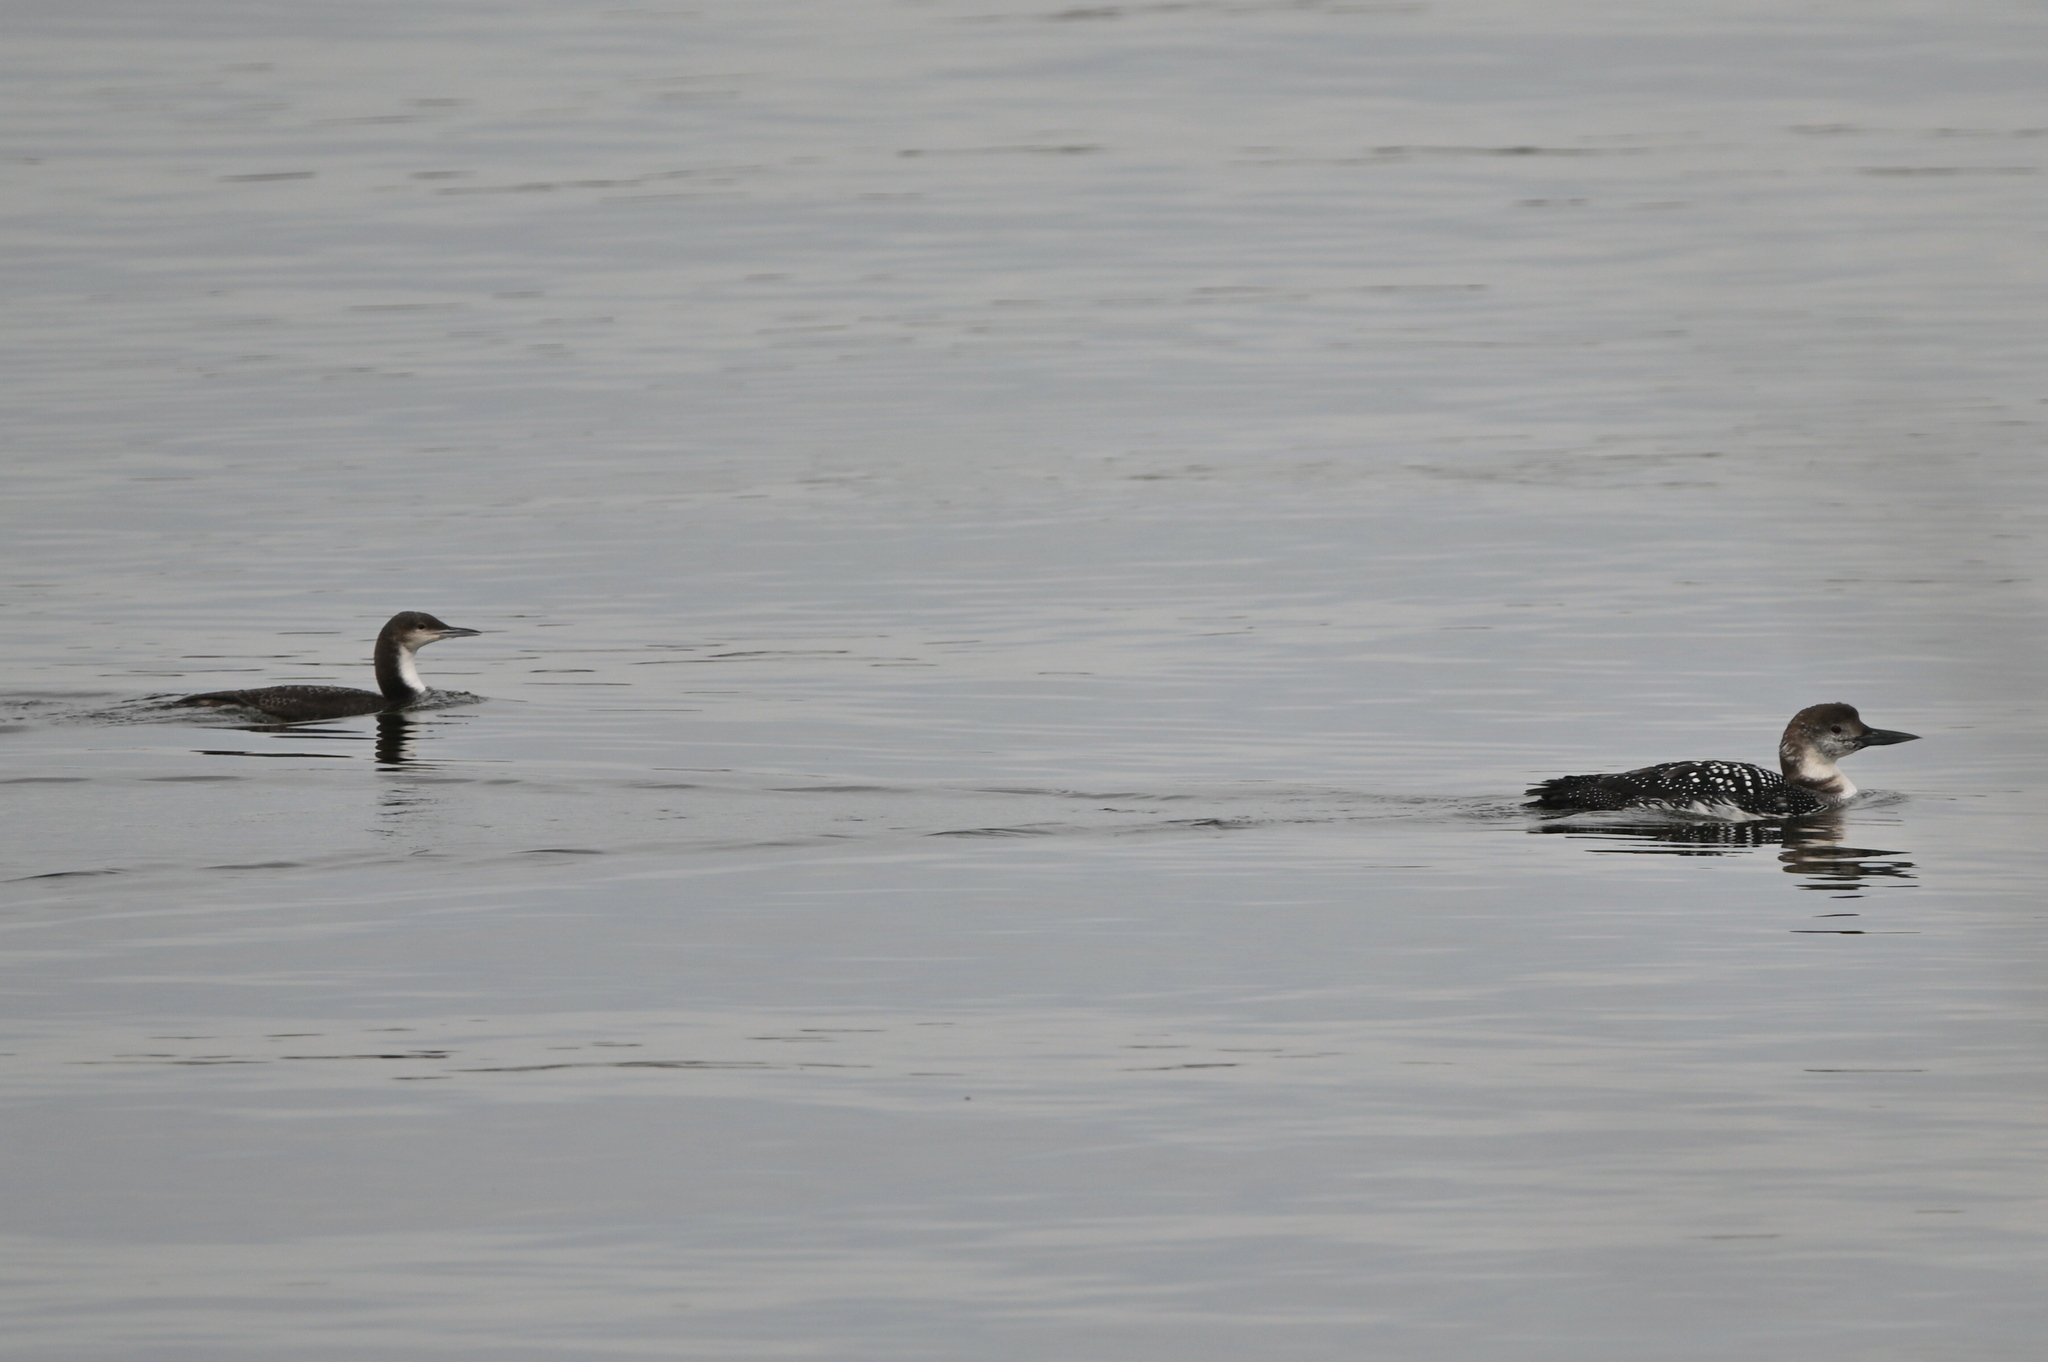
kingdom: Animalia
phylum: Chordata
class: Aves
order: Gaviiformes
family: Gaviidae
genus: Gavia
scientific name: Gavia pacifica
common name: Pacific loon
